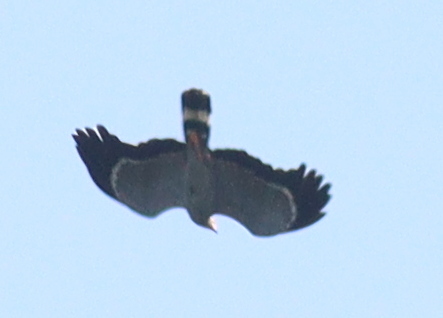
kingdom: Animalia
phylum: Chordata
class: Aves
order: Accipitriformes
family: Accipitridae
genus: Polyboroides
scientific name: Polyboroides typus
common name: African harrier-hawk
